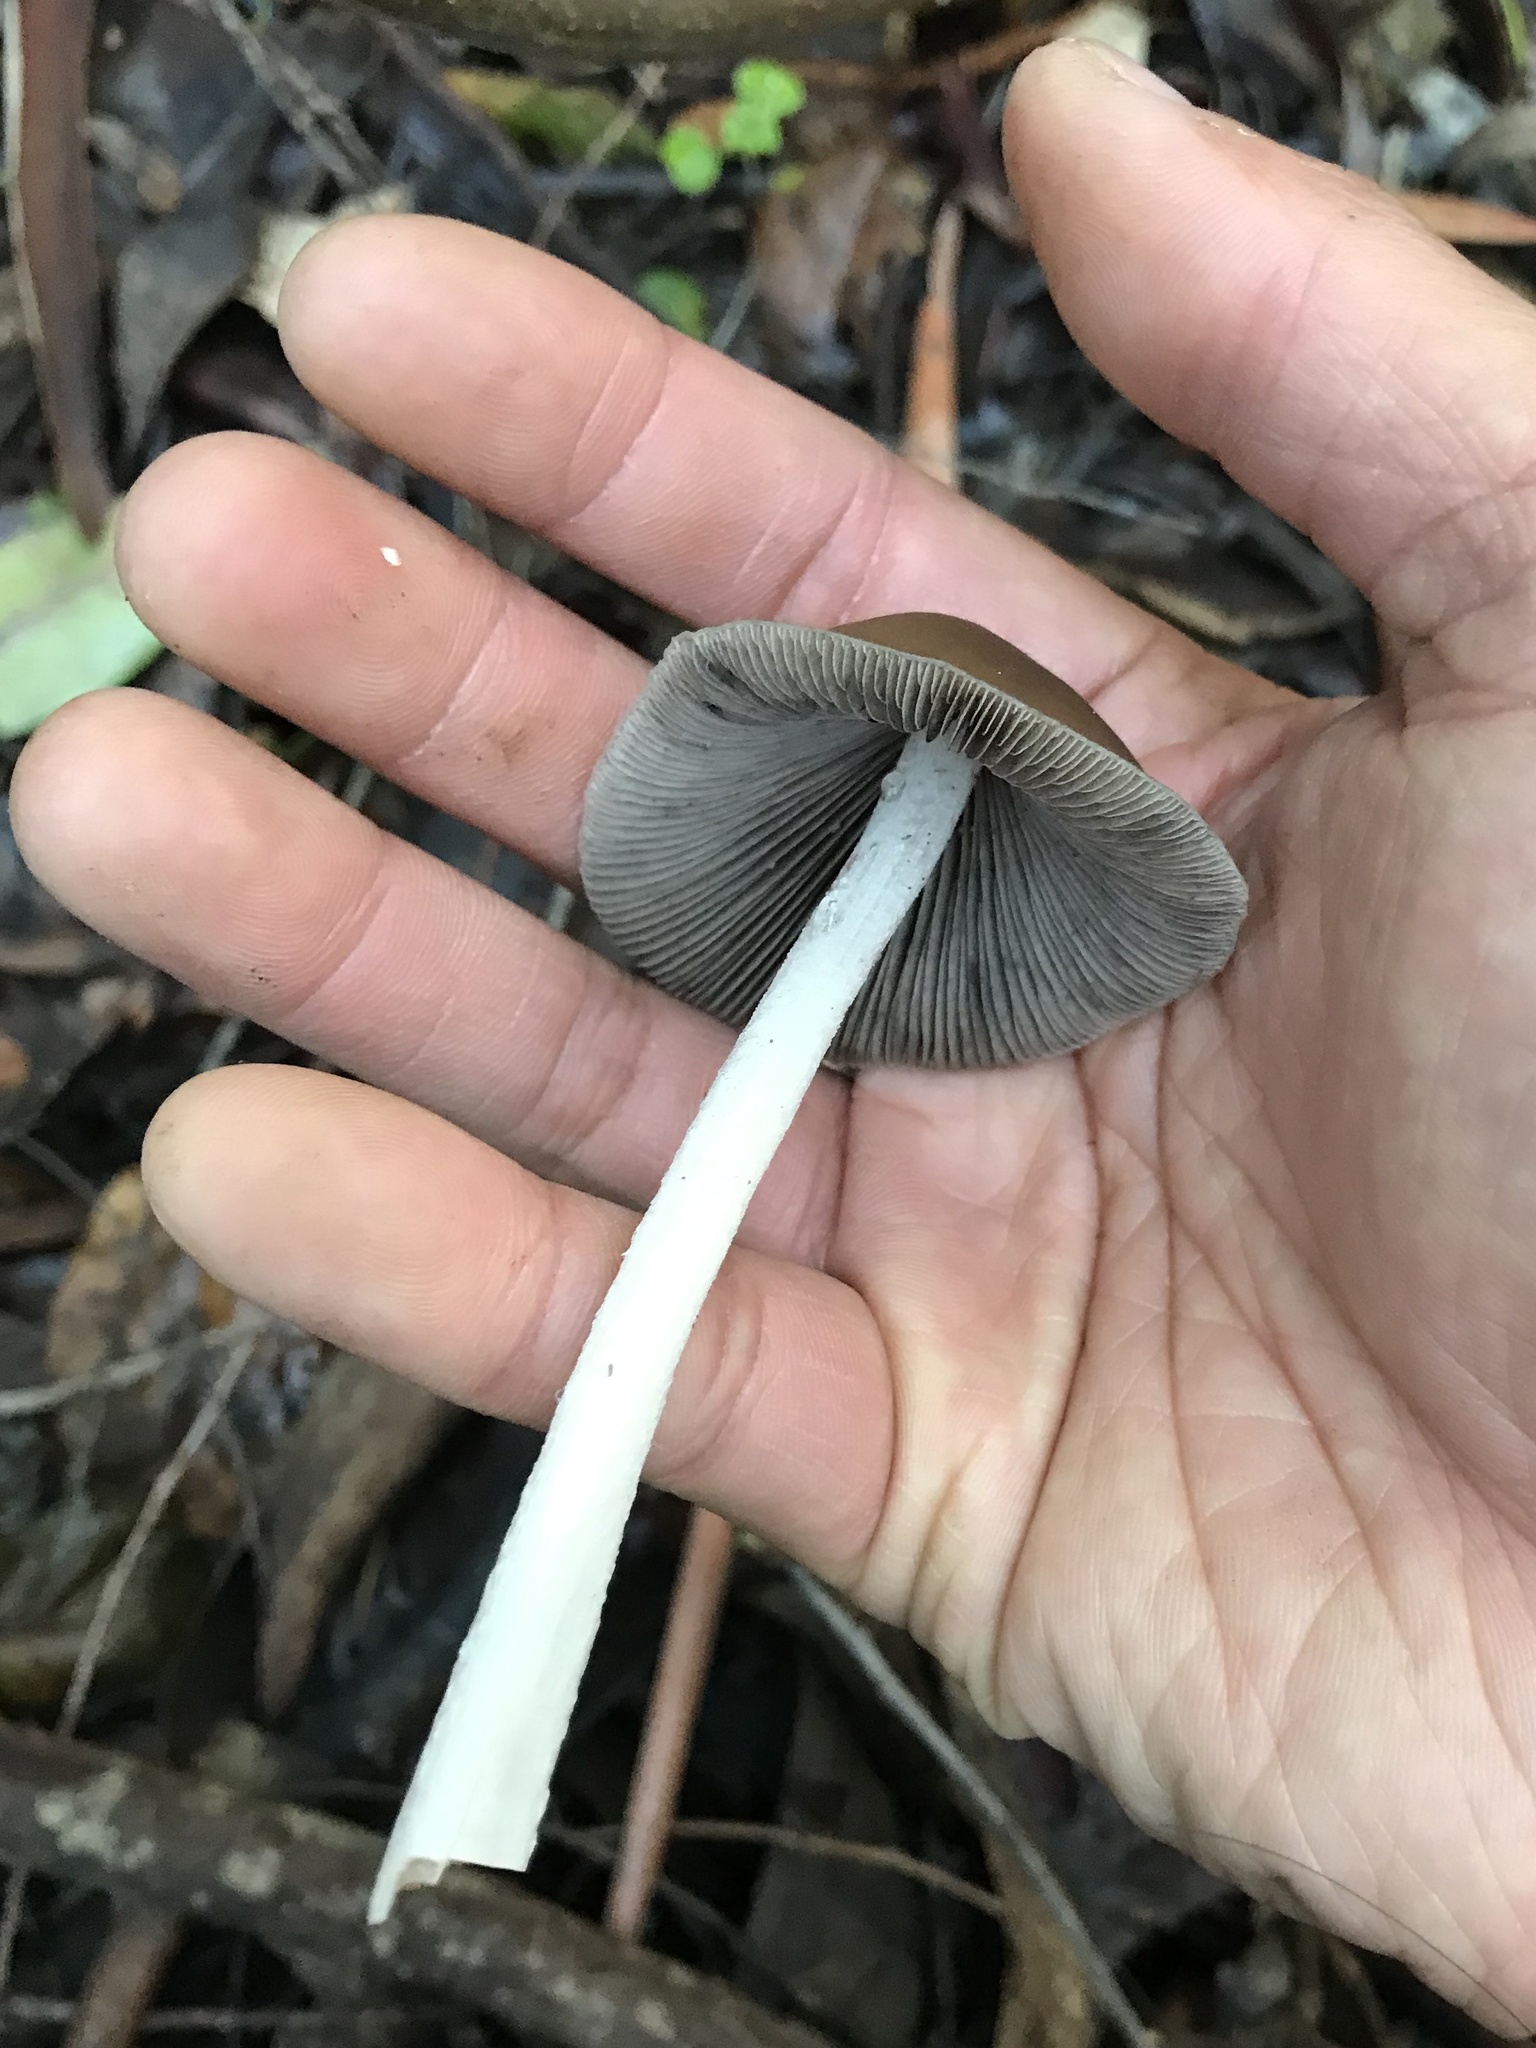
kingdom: Fungi
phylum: Basidiomycota
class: Agaricomycetes
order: Agaricales
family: Psathyrellaceae
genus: Psathyrella
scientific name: Psathyrella longipes
